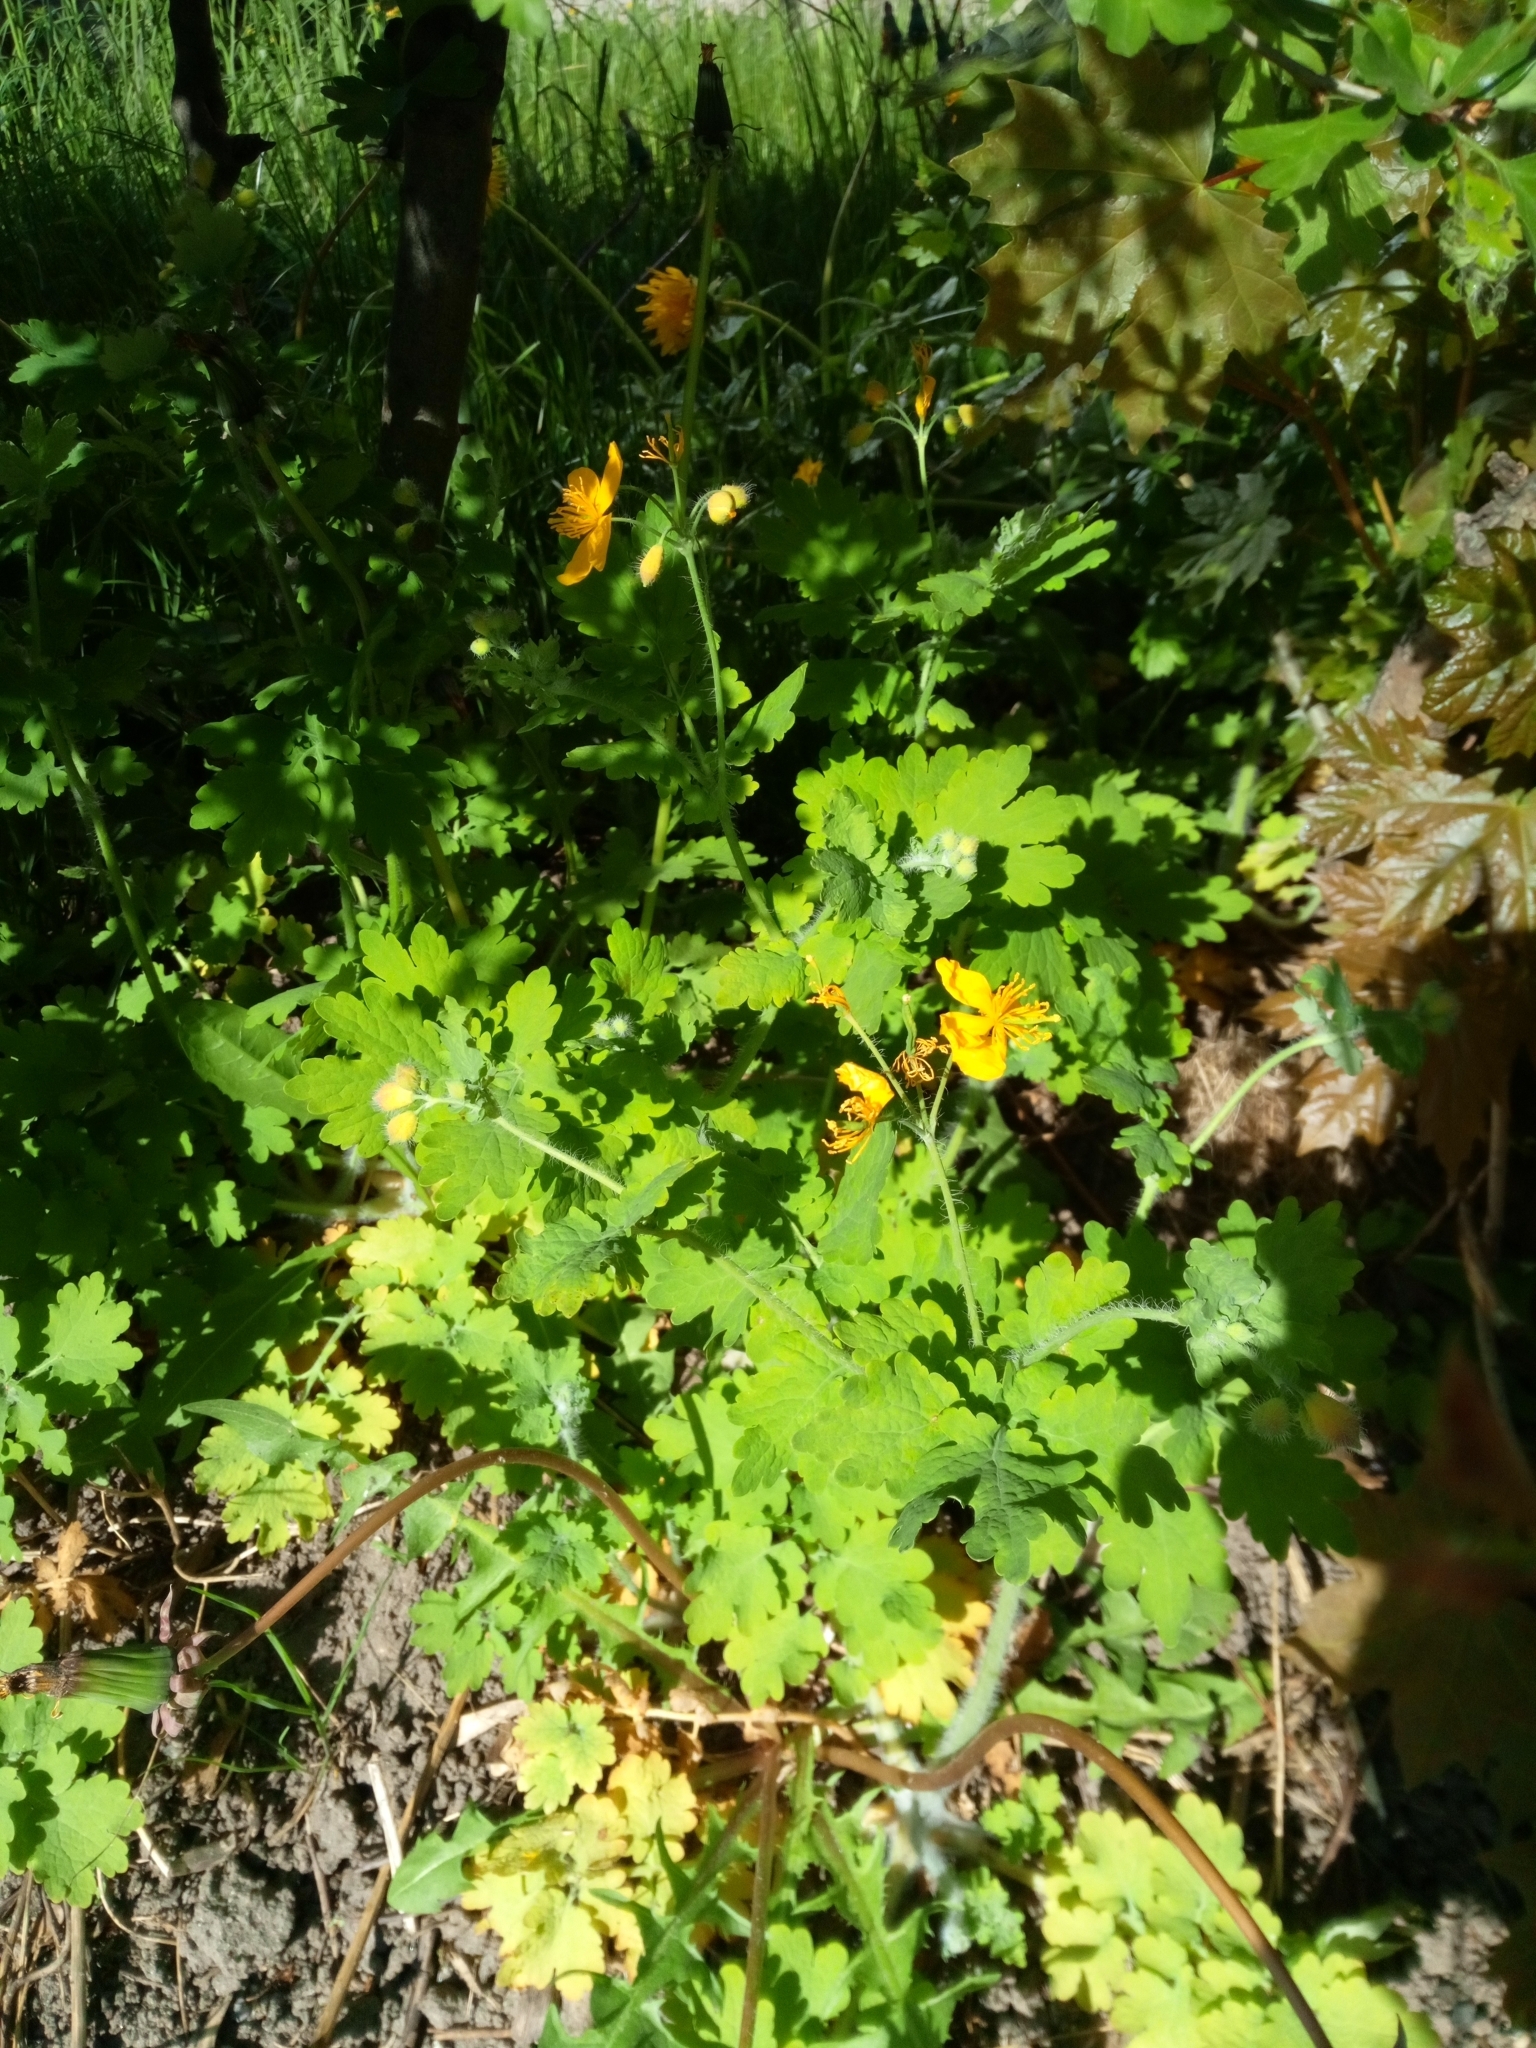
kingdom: Plantae
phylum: Tracheophyta
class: Magnoliopsida
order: Ranunculales
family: Papaveraceae
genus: Chelidonium
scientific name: Chelidonium majus
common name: Greater celandine
